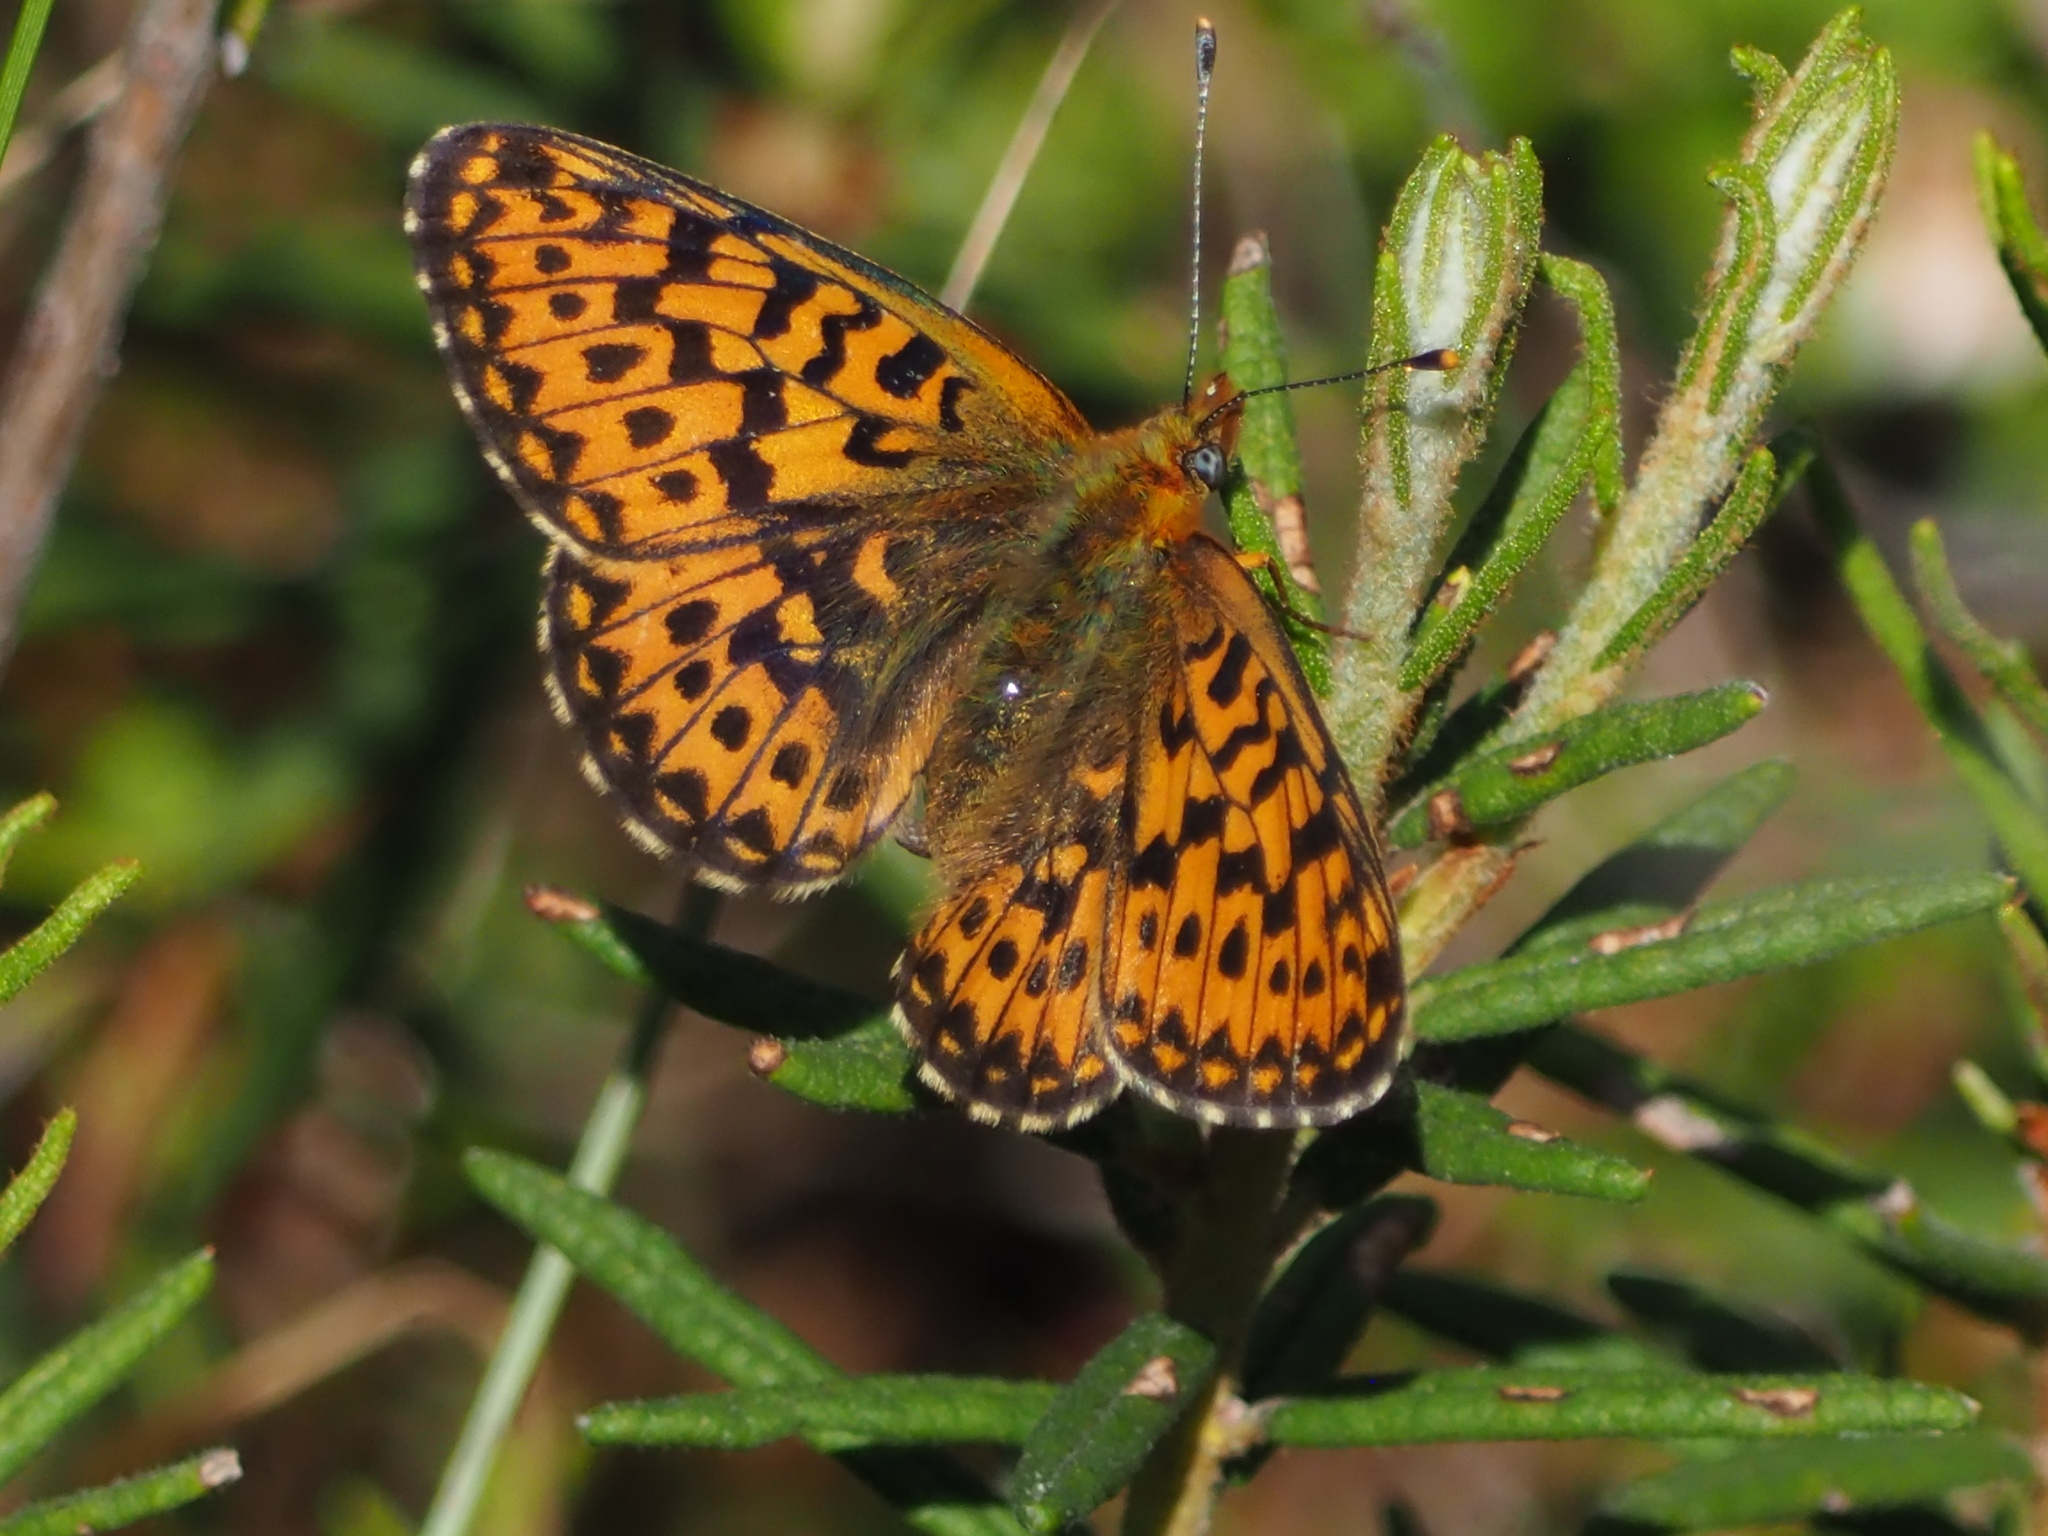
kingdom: Animalia
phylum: Arthropoda
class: Insecta
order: Lepidoptera
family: Nymphalidae
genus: Clossiana
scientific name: Clossiana euphrosyne
